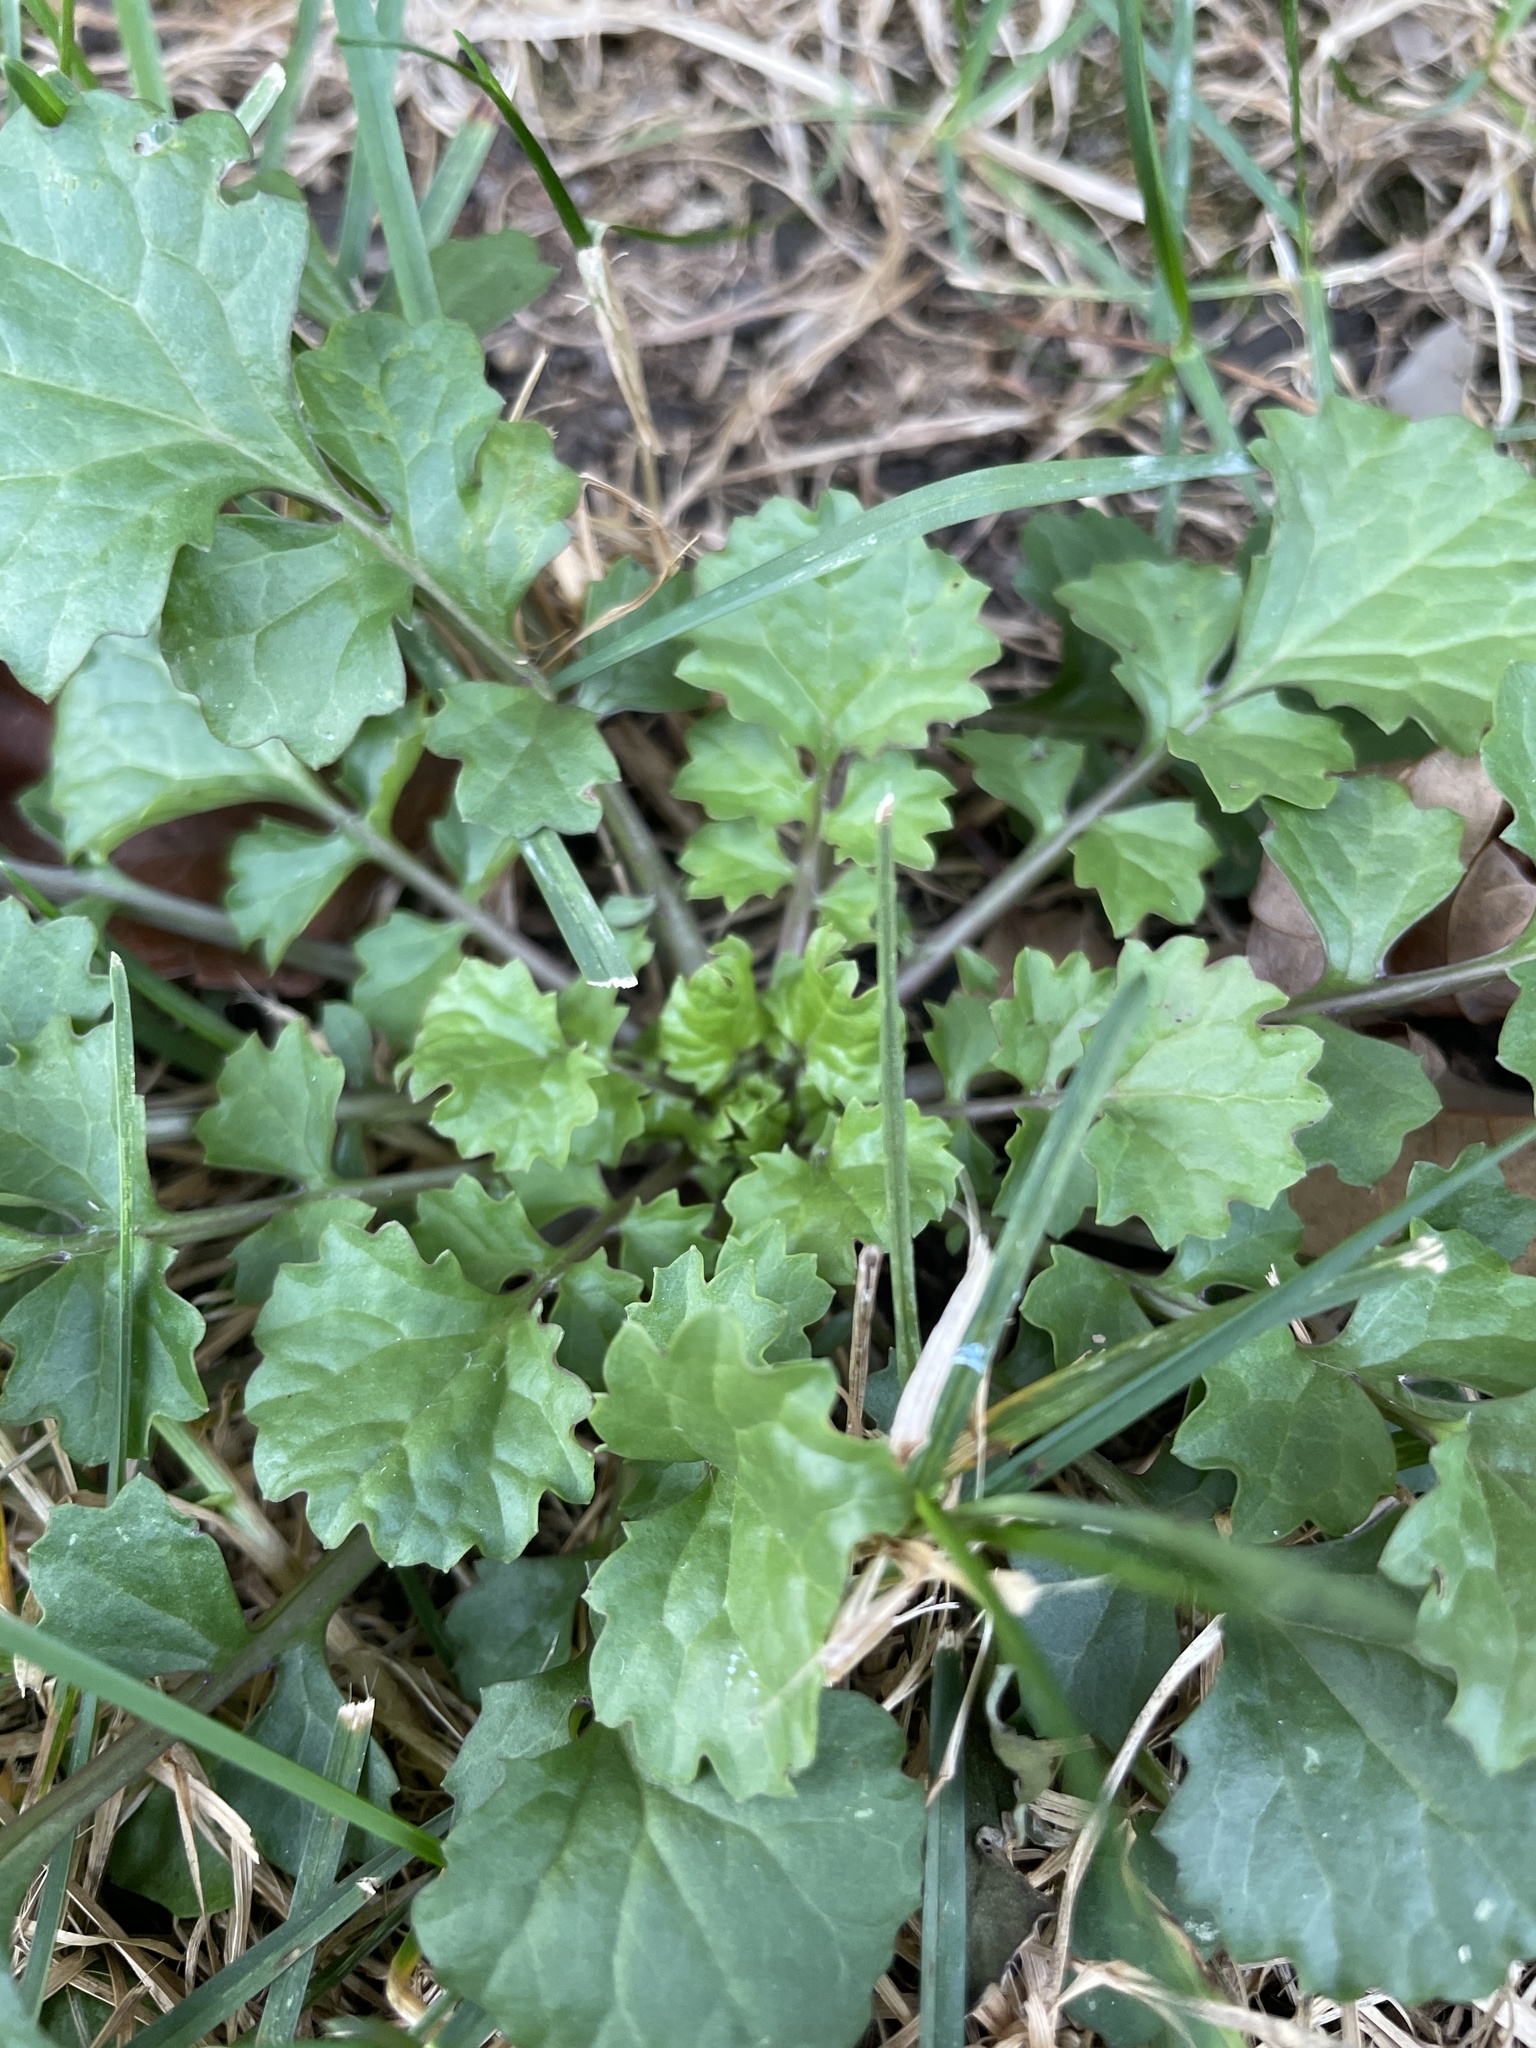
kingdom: Plantae
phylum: Tracheophyta
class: Magnoliopsida
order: Asterales
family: Asteraceae
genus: Packera
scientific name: Packera glabella
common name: Butterweed
